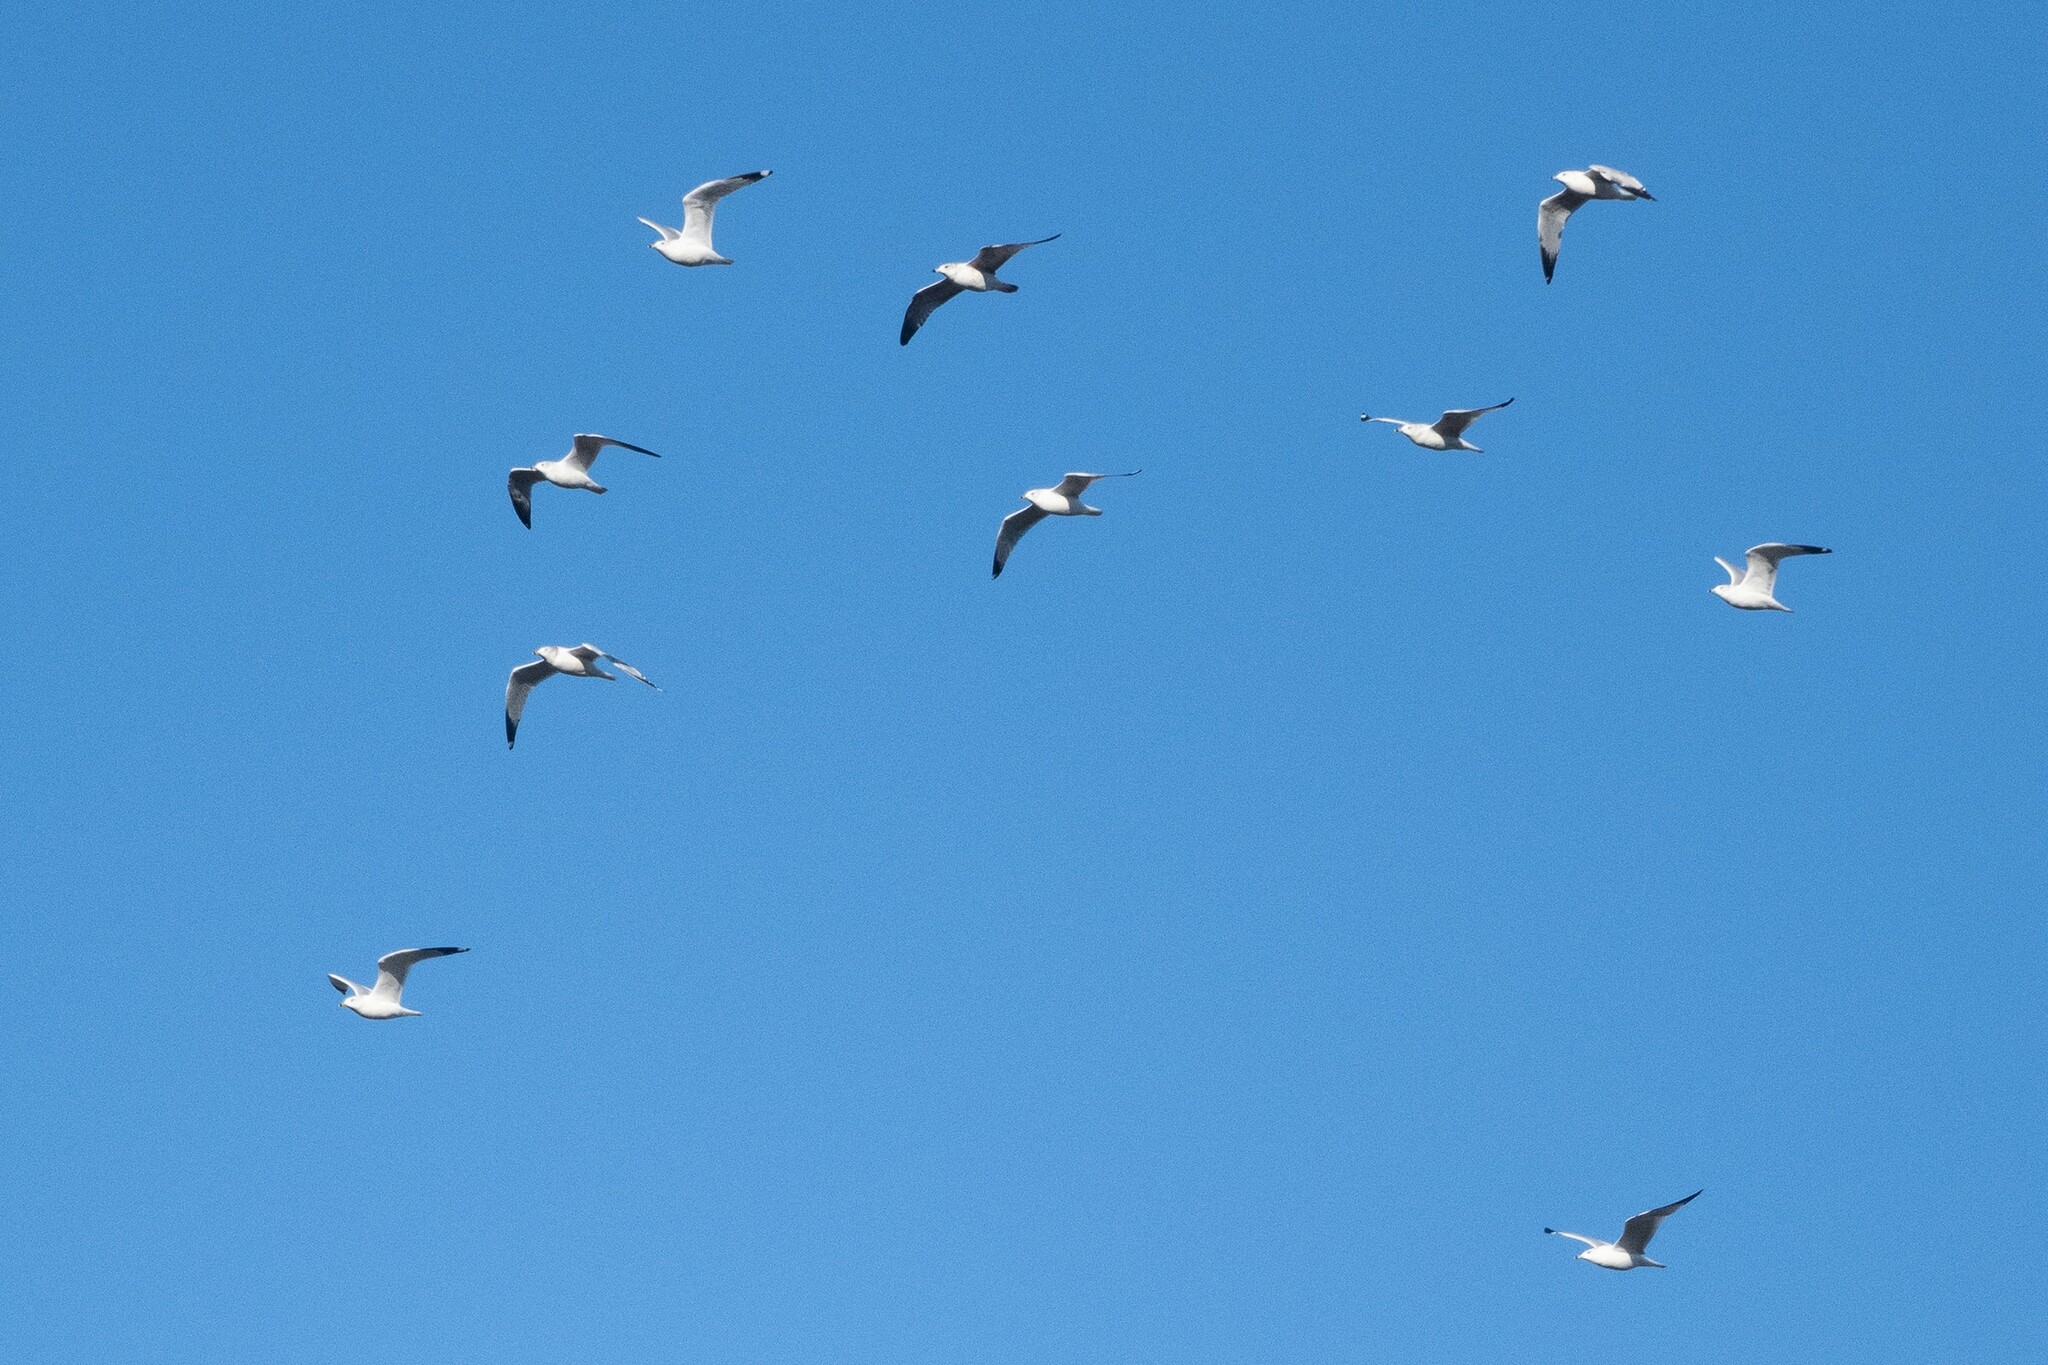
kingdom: Animalia
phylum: Chordata
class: Aves
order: Charadriiformes
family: Laridae
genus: Larus
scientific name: Larus delawarensis
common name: Ring-billed gull
